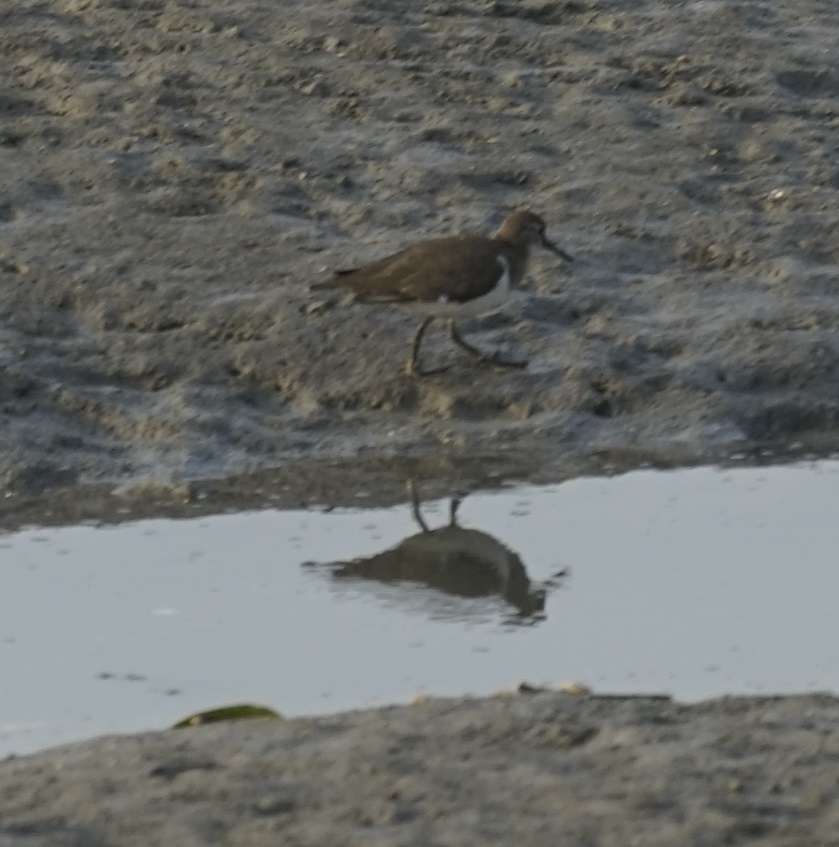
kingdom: Animalia
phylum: Chordata
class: Aves
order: Charadriiformes
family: Scolopacidae
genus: Actitis
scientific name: Actitis hypoleucos
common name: Common sandpiper
